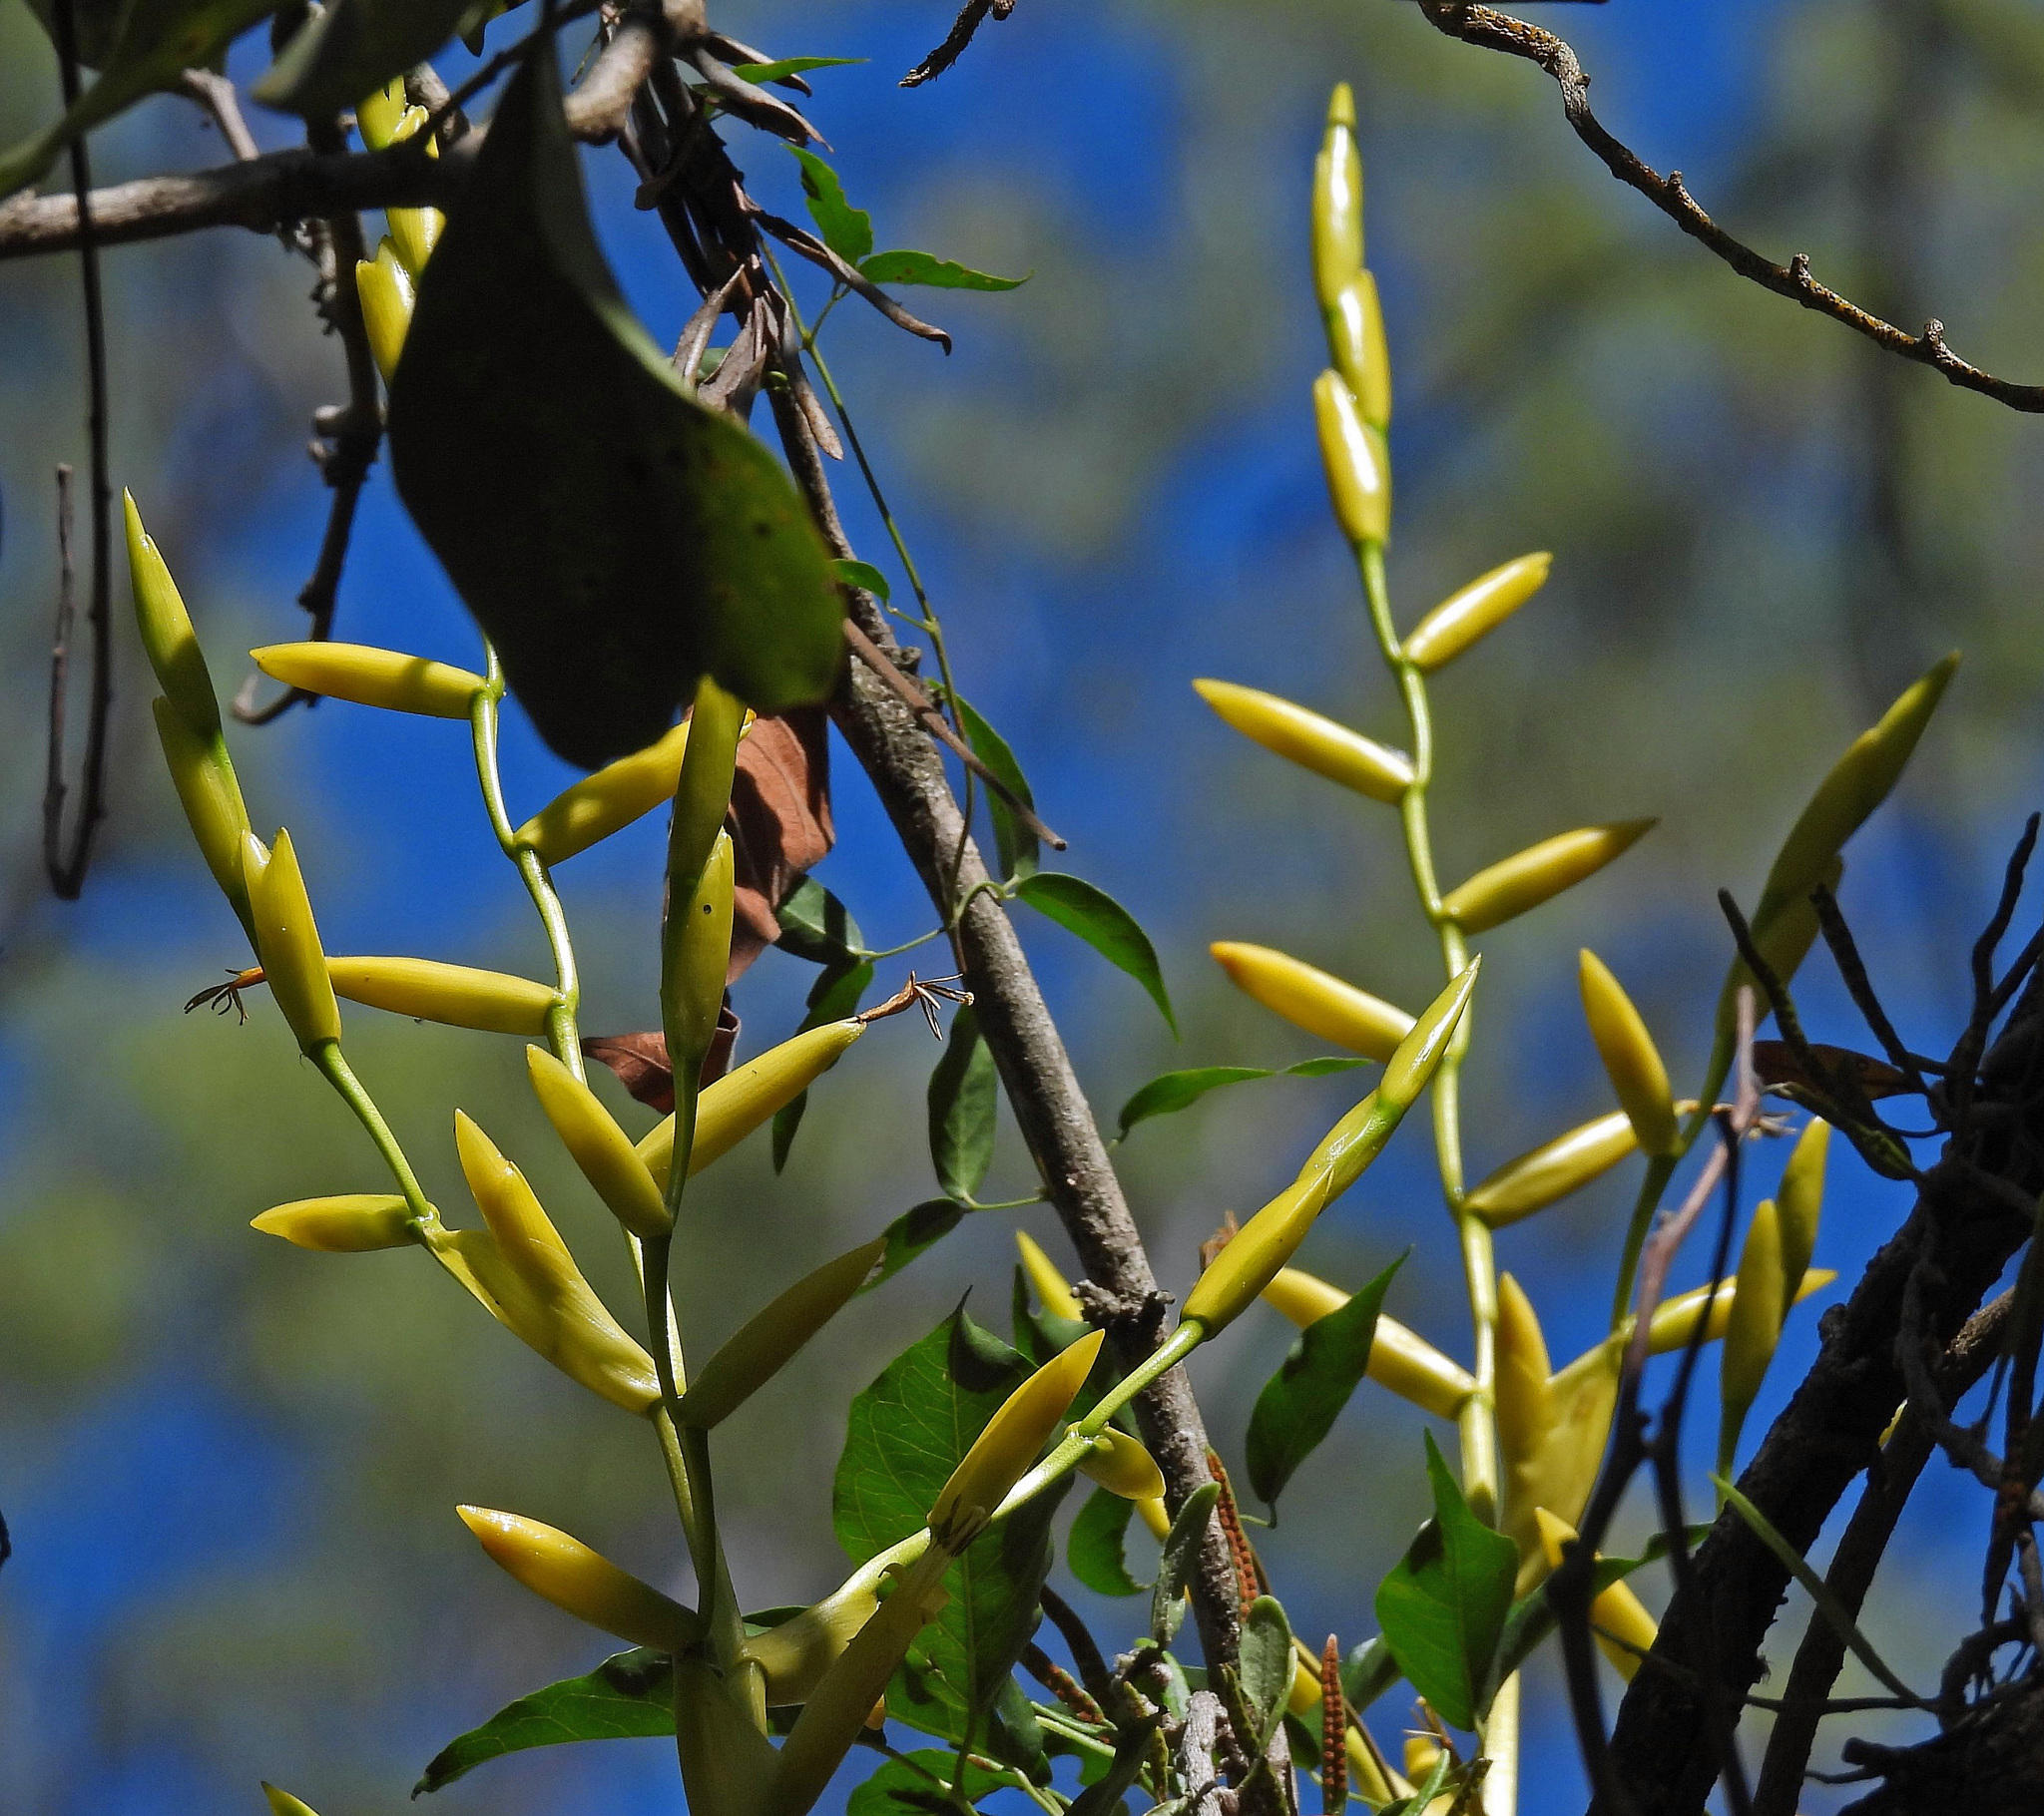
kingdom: Plantae
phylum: Tracheophyta
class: Liliopsida
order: Poales
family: Bromeliaceae
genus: Vriesea
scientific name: Vriesea friburgensis
